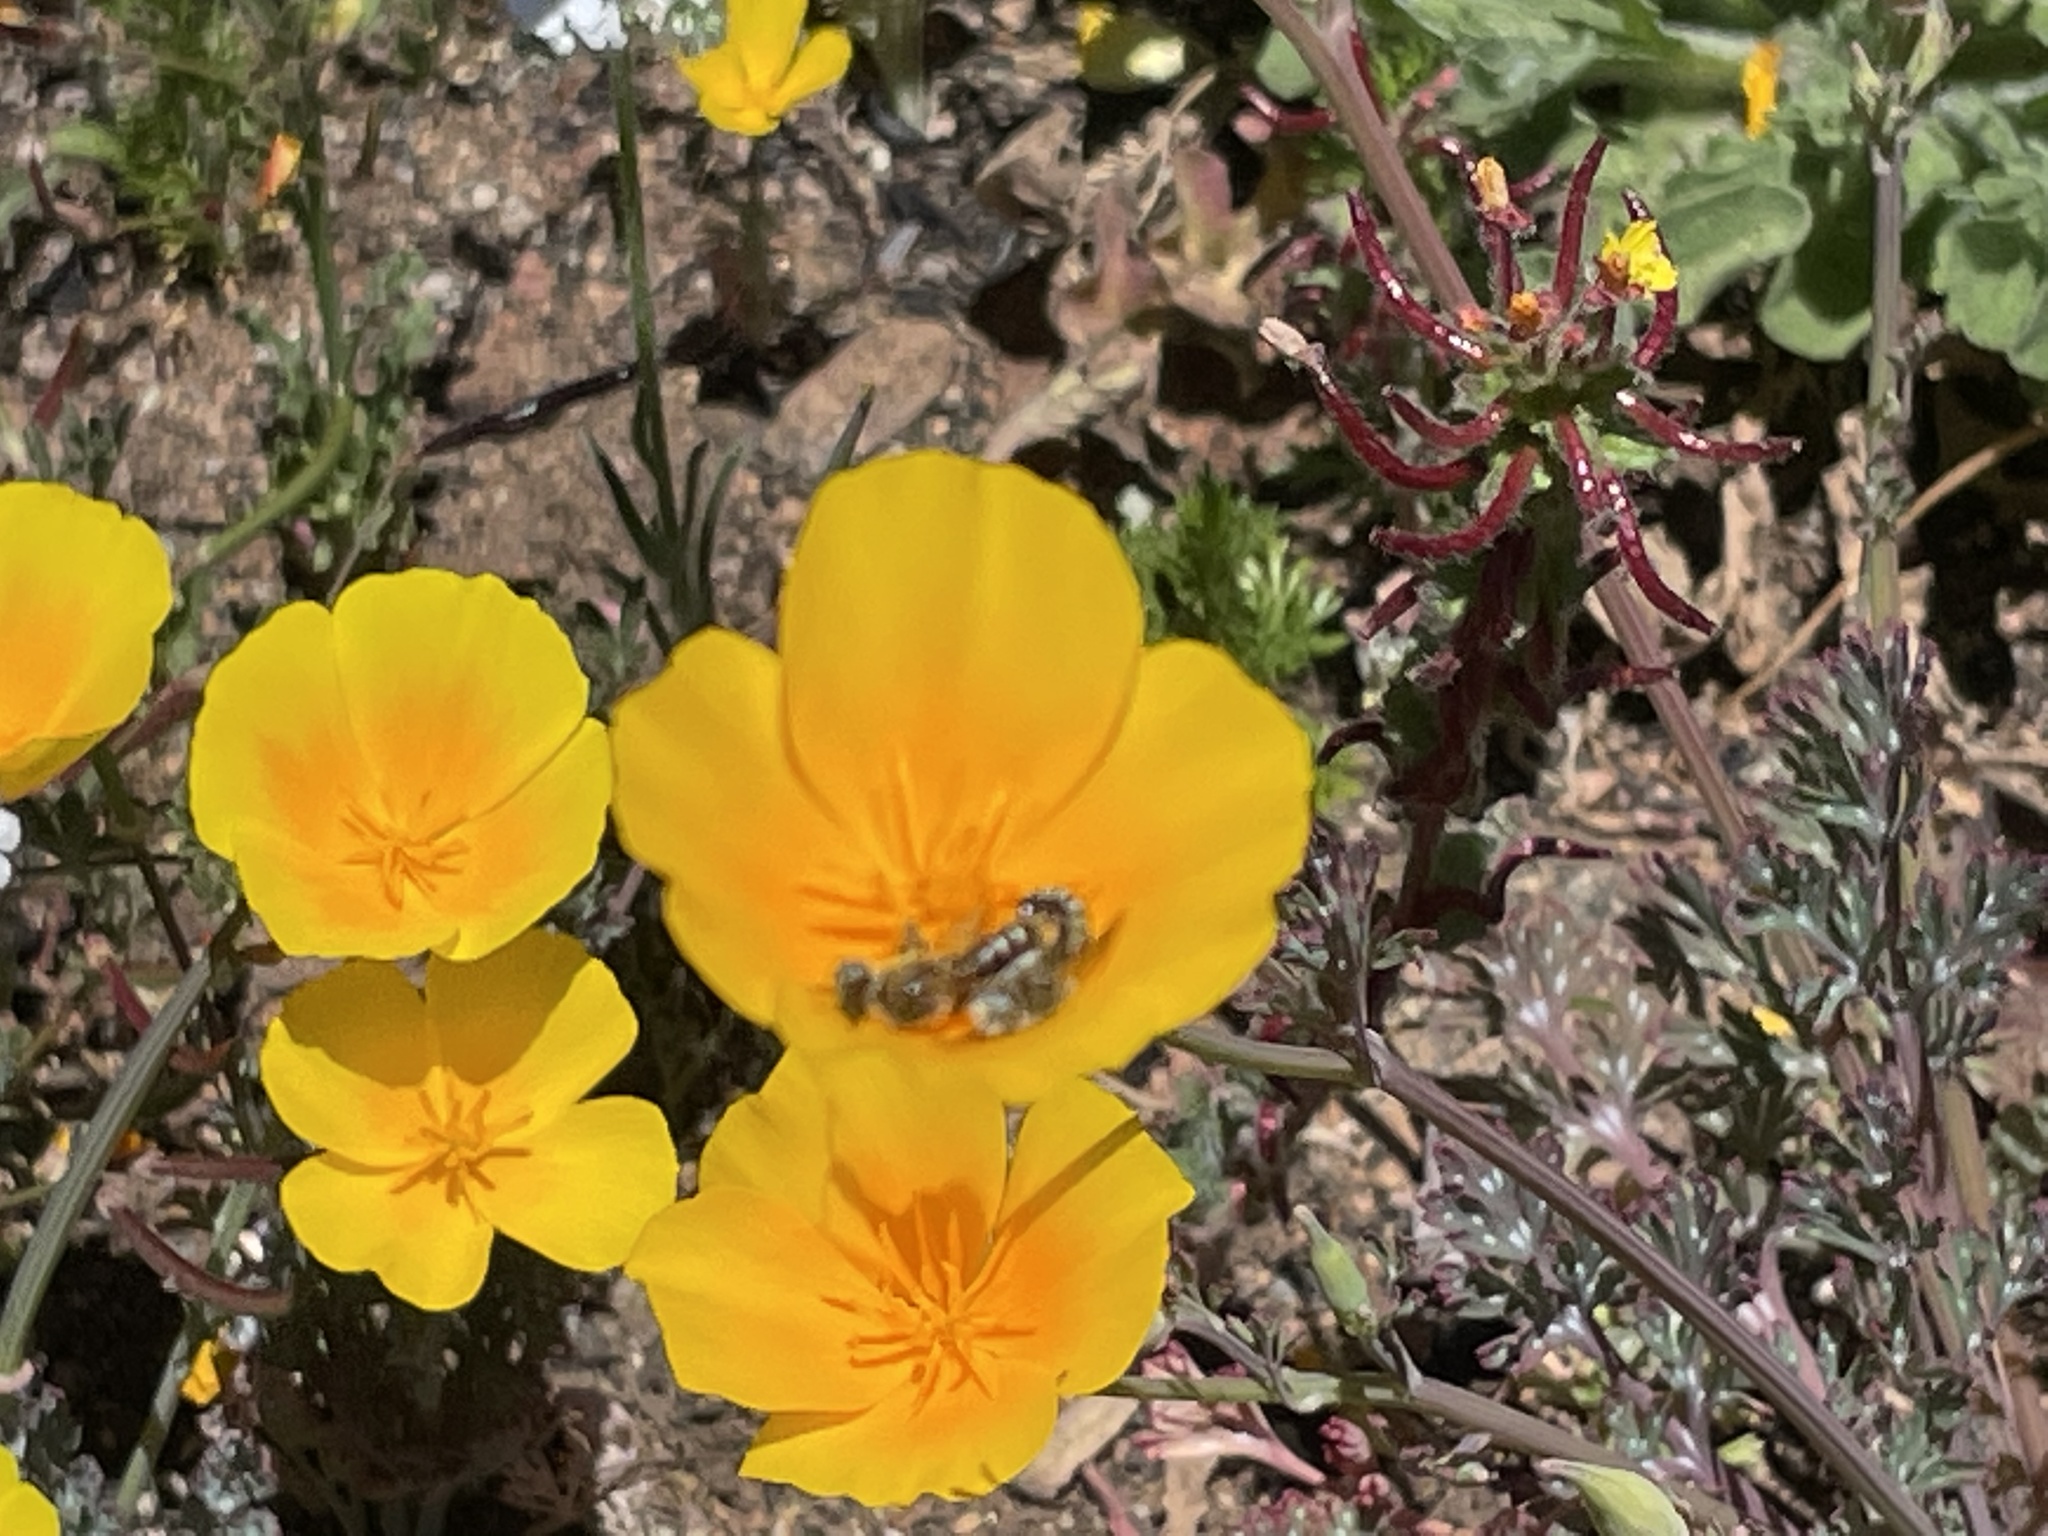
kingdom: Plantae
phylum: Tracheophyta
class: Magnoliopsida
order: Ranunculales
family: Papaveraceae
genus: Eschscholzia
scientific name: Eschscholzia californica
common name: California poppy
